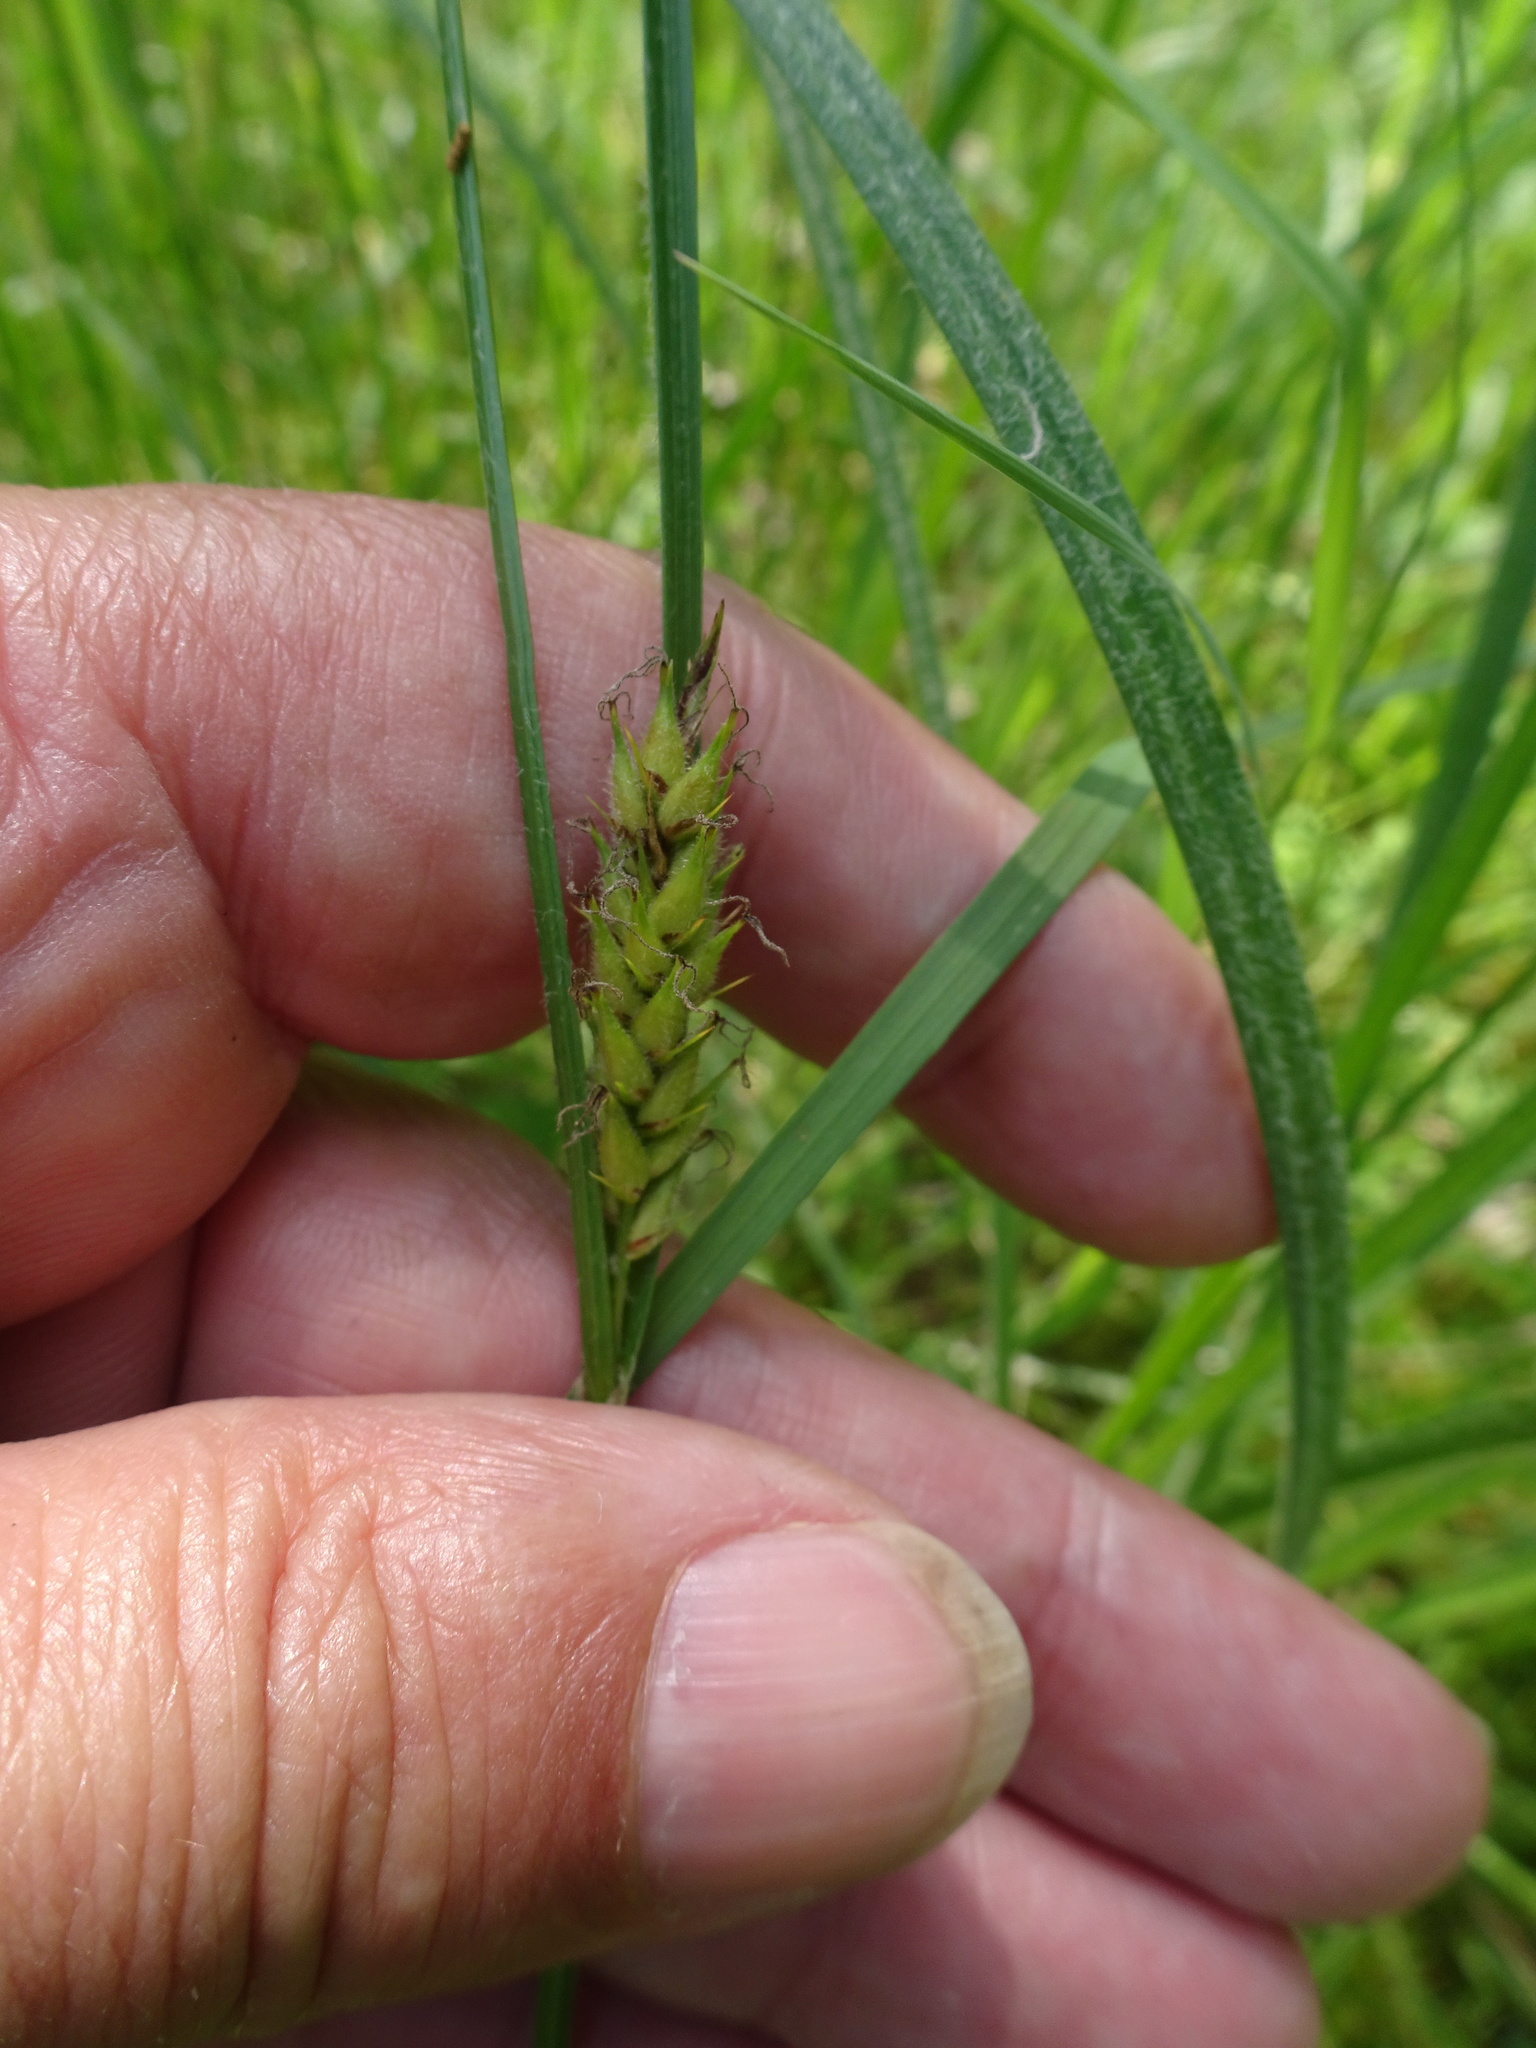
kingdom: Plantae
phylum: Tracheophyta
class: Liliopsida
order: Poales
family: Cyperaceae
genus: Carex
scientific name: Carex hirta
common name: Hairy sedge
